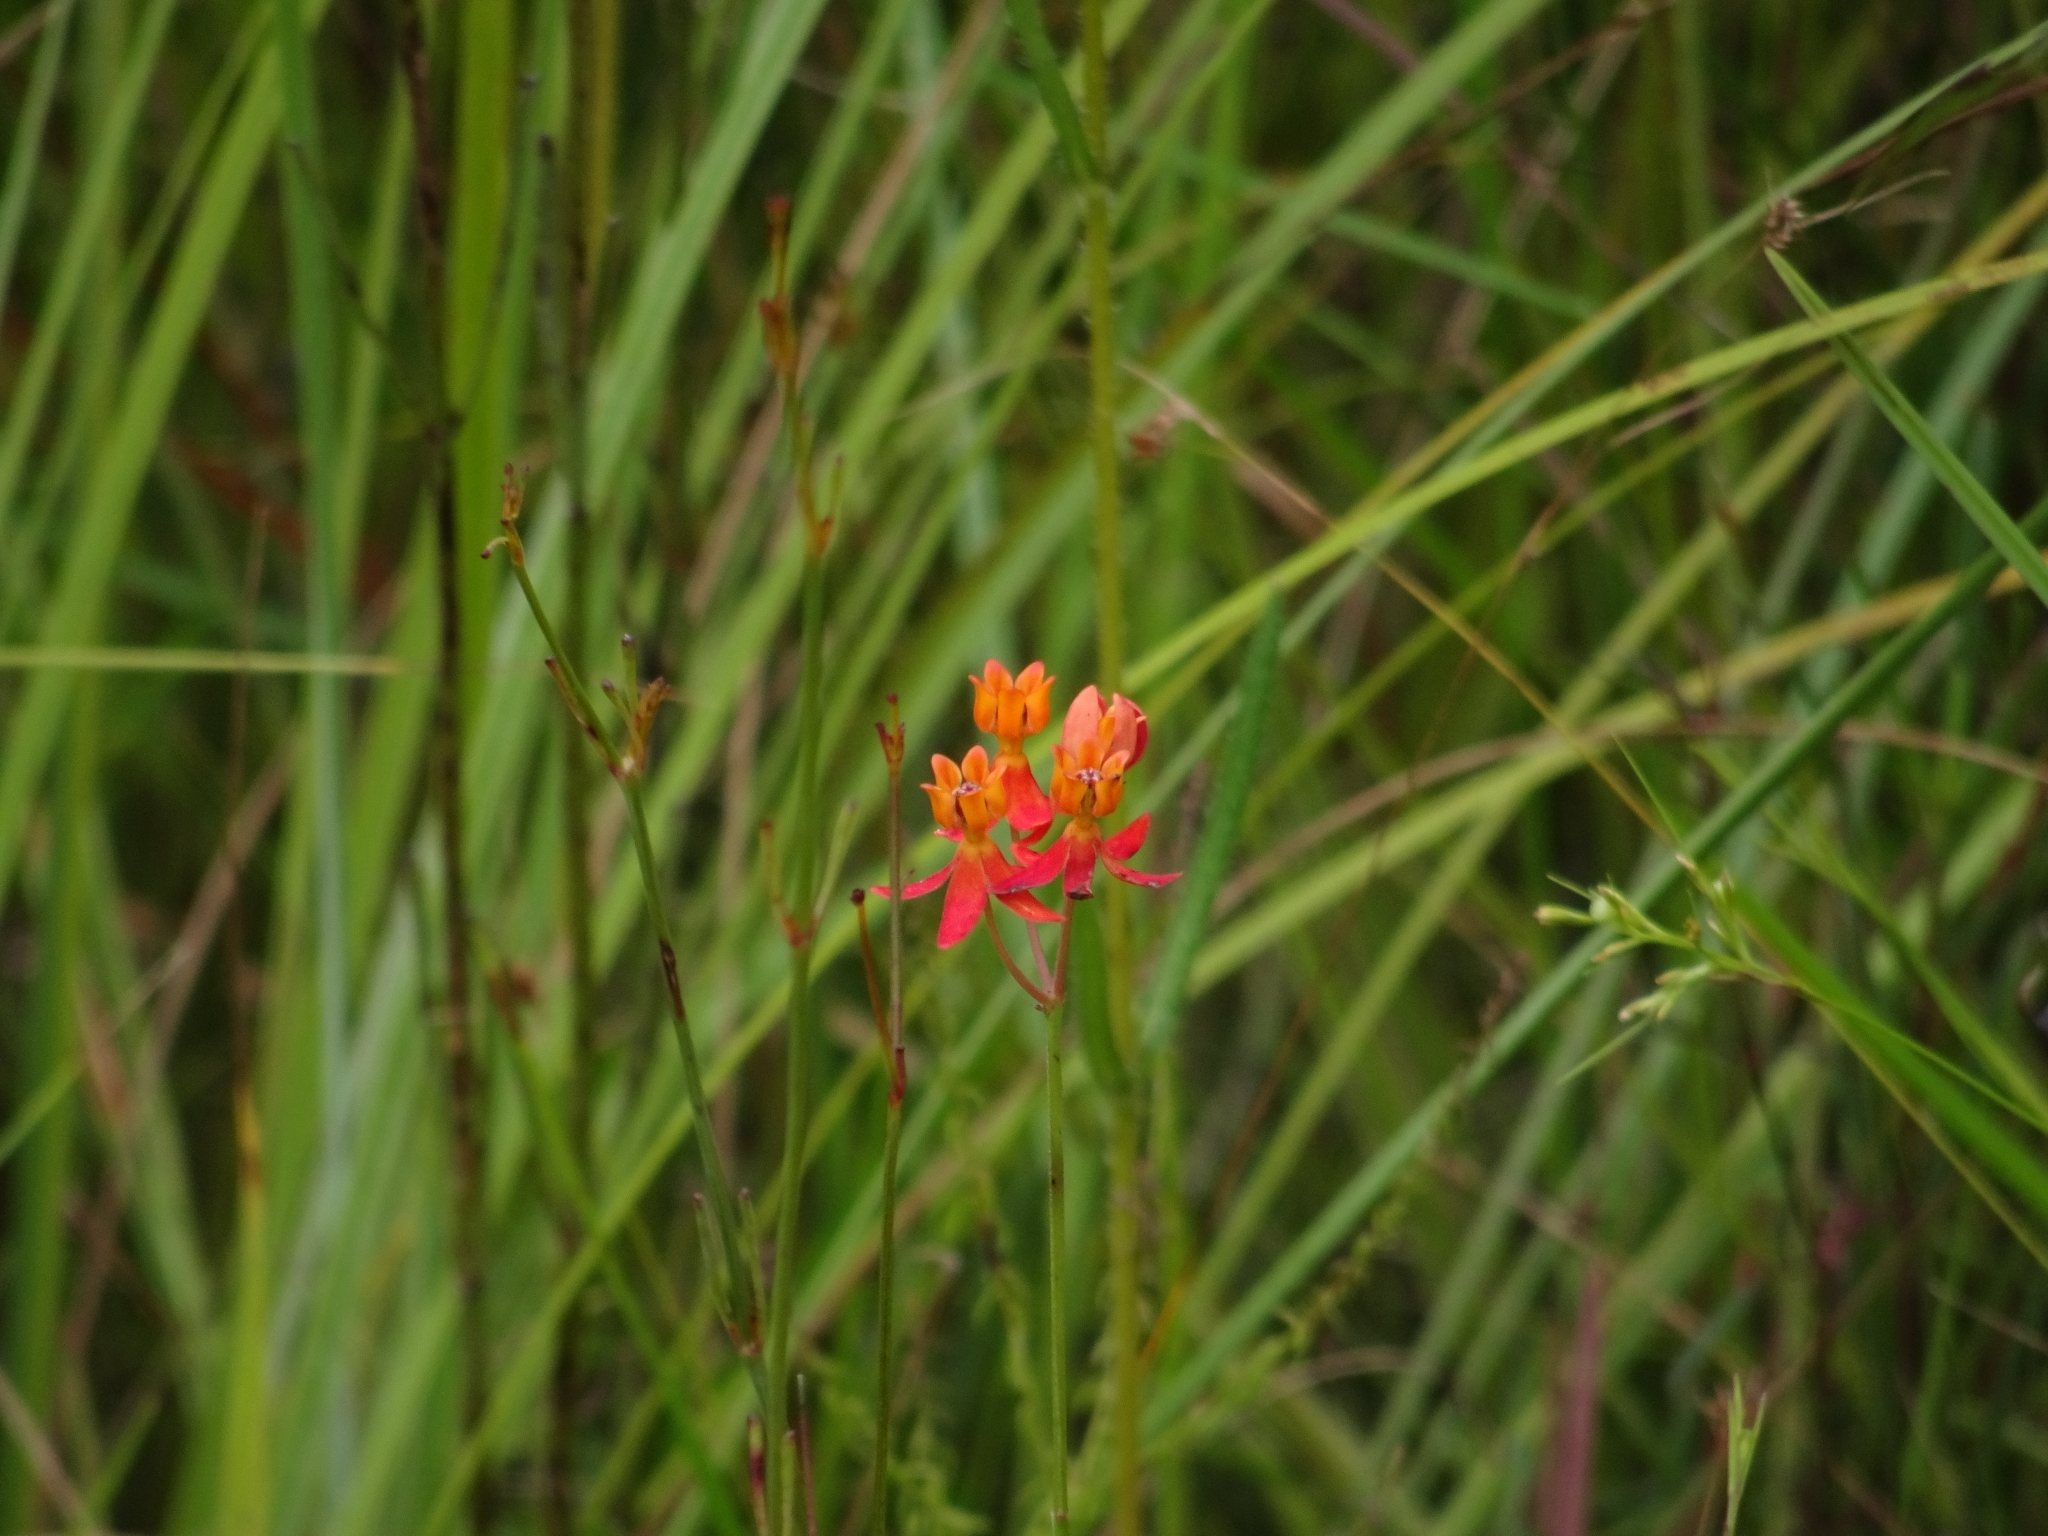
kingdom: Plantae
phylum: Tracheophyta
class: Magnoliopsida
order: Gentianales
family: Apocynaceae
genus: Asclepias
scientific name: Asclepias lanceolata
